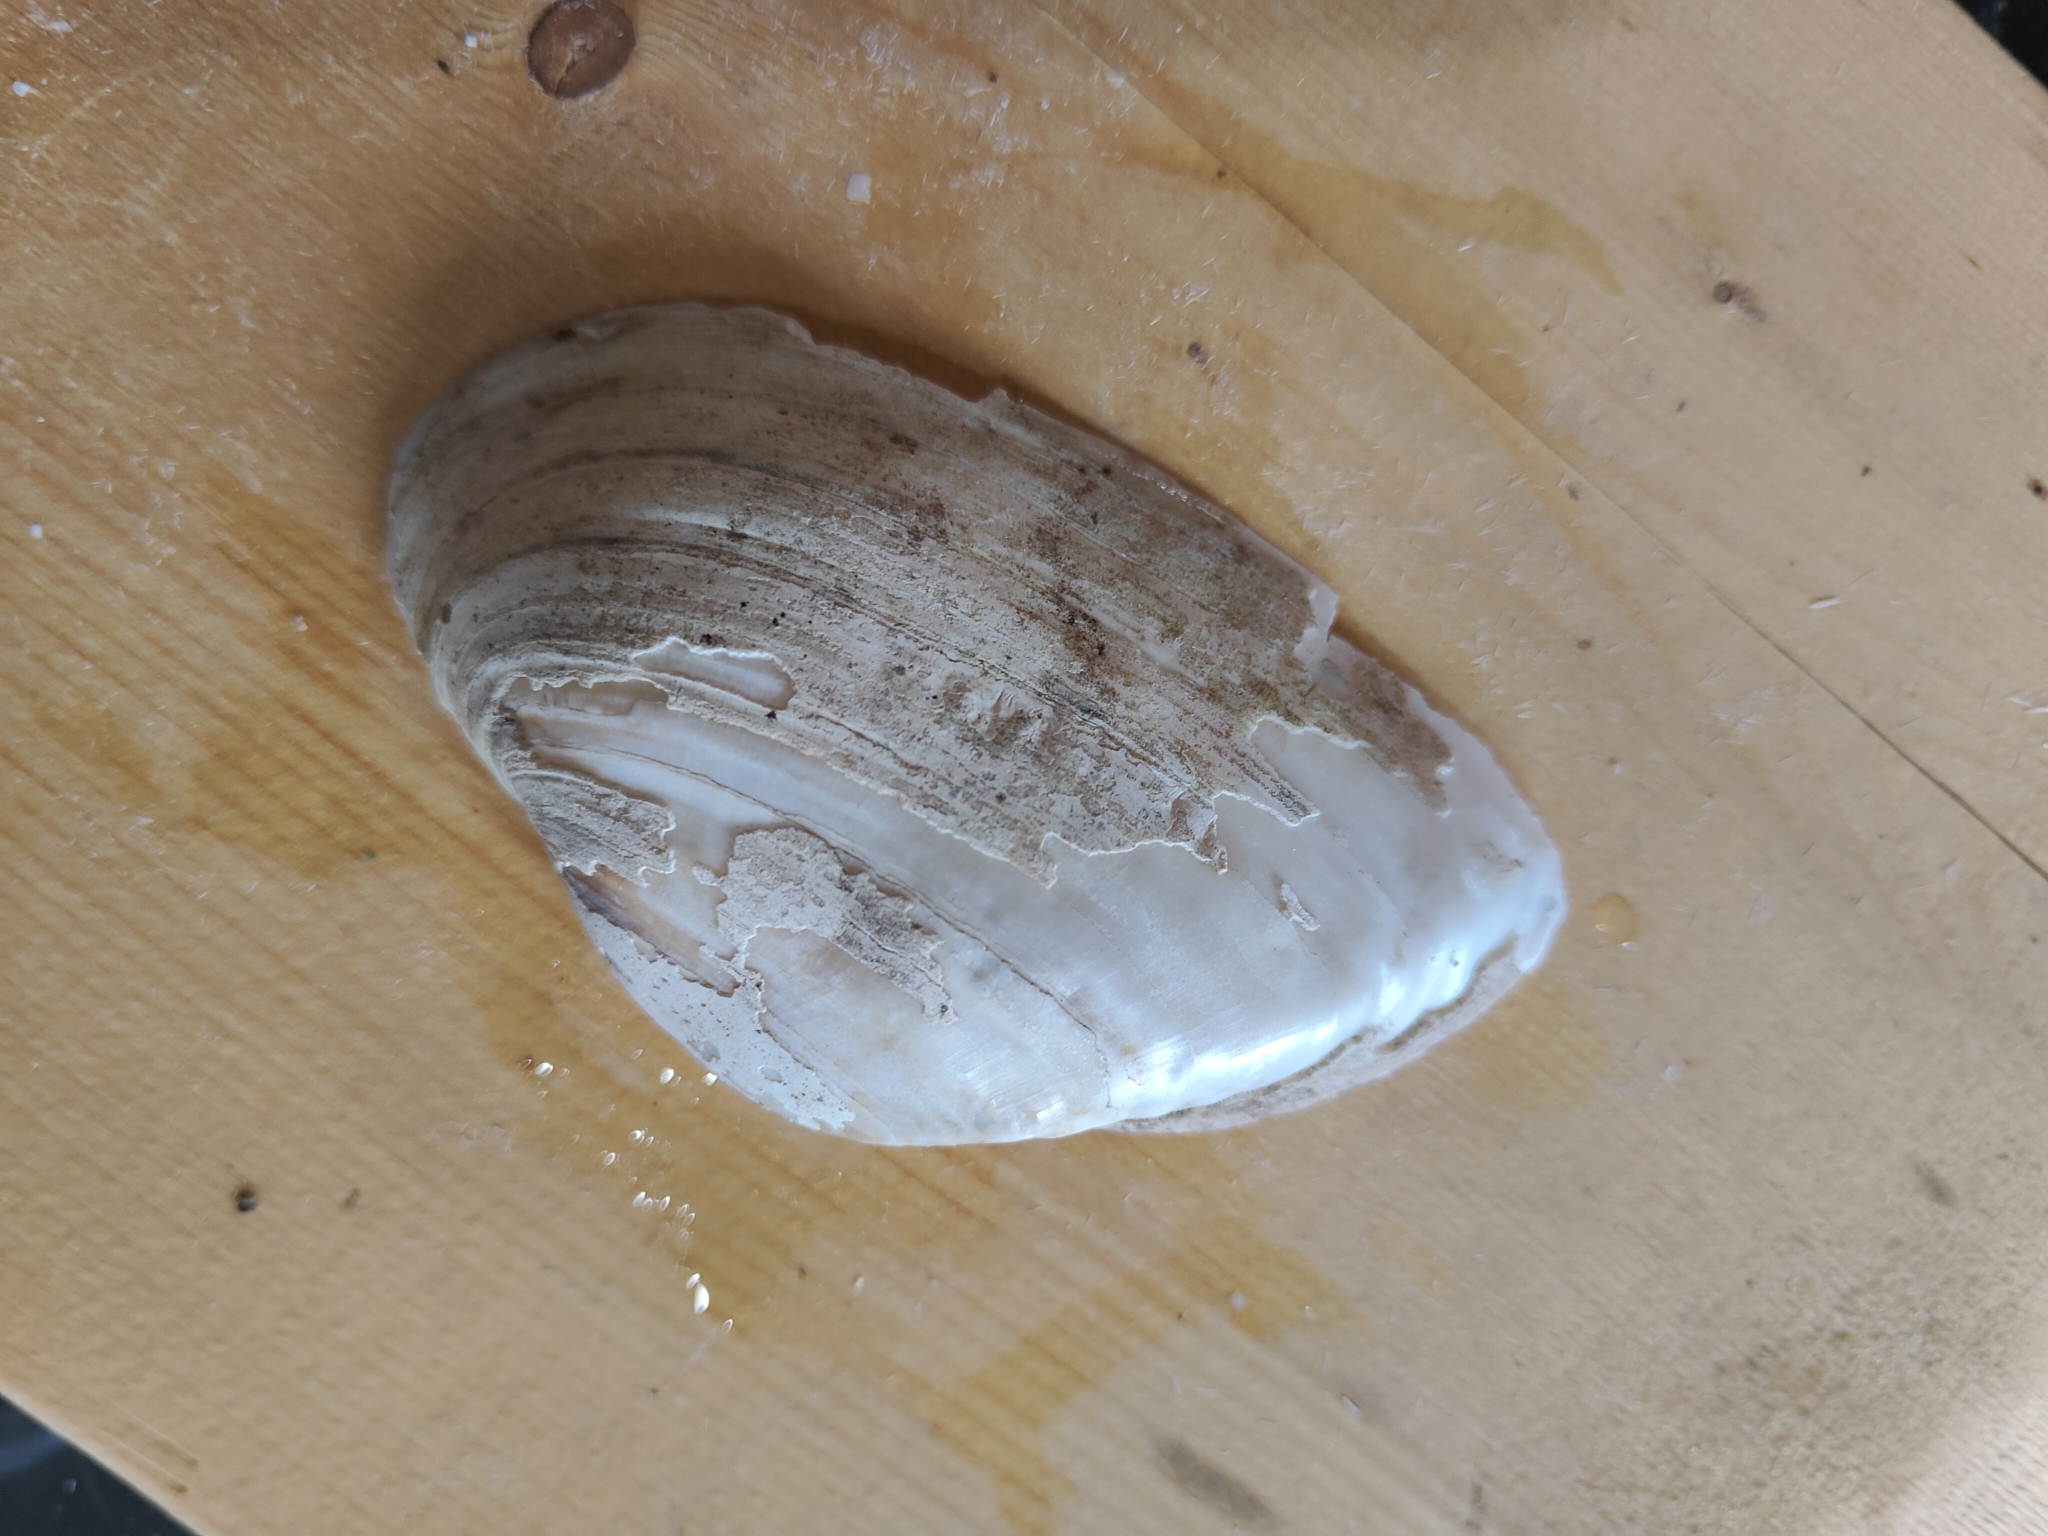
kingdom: Animalia
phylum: Mollusca
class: Bivalvia
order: Unionida
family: Unionidae
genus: Alasmidonta
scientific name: Alasmidonta marginata
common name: Elktoe
